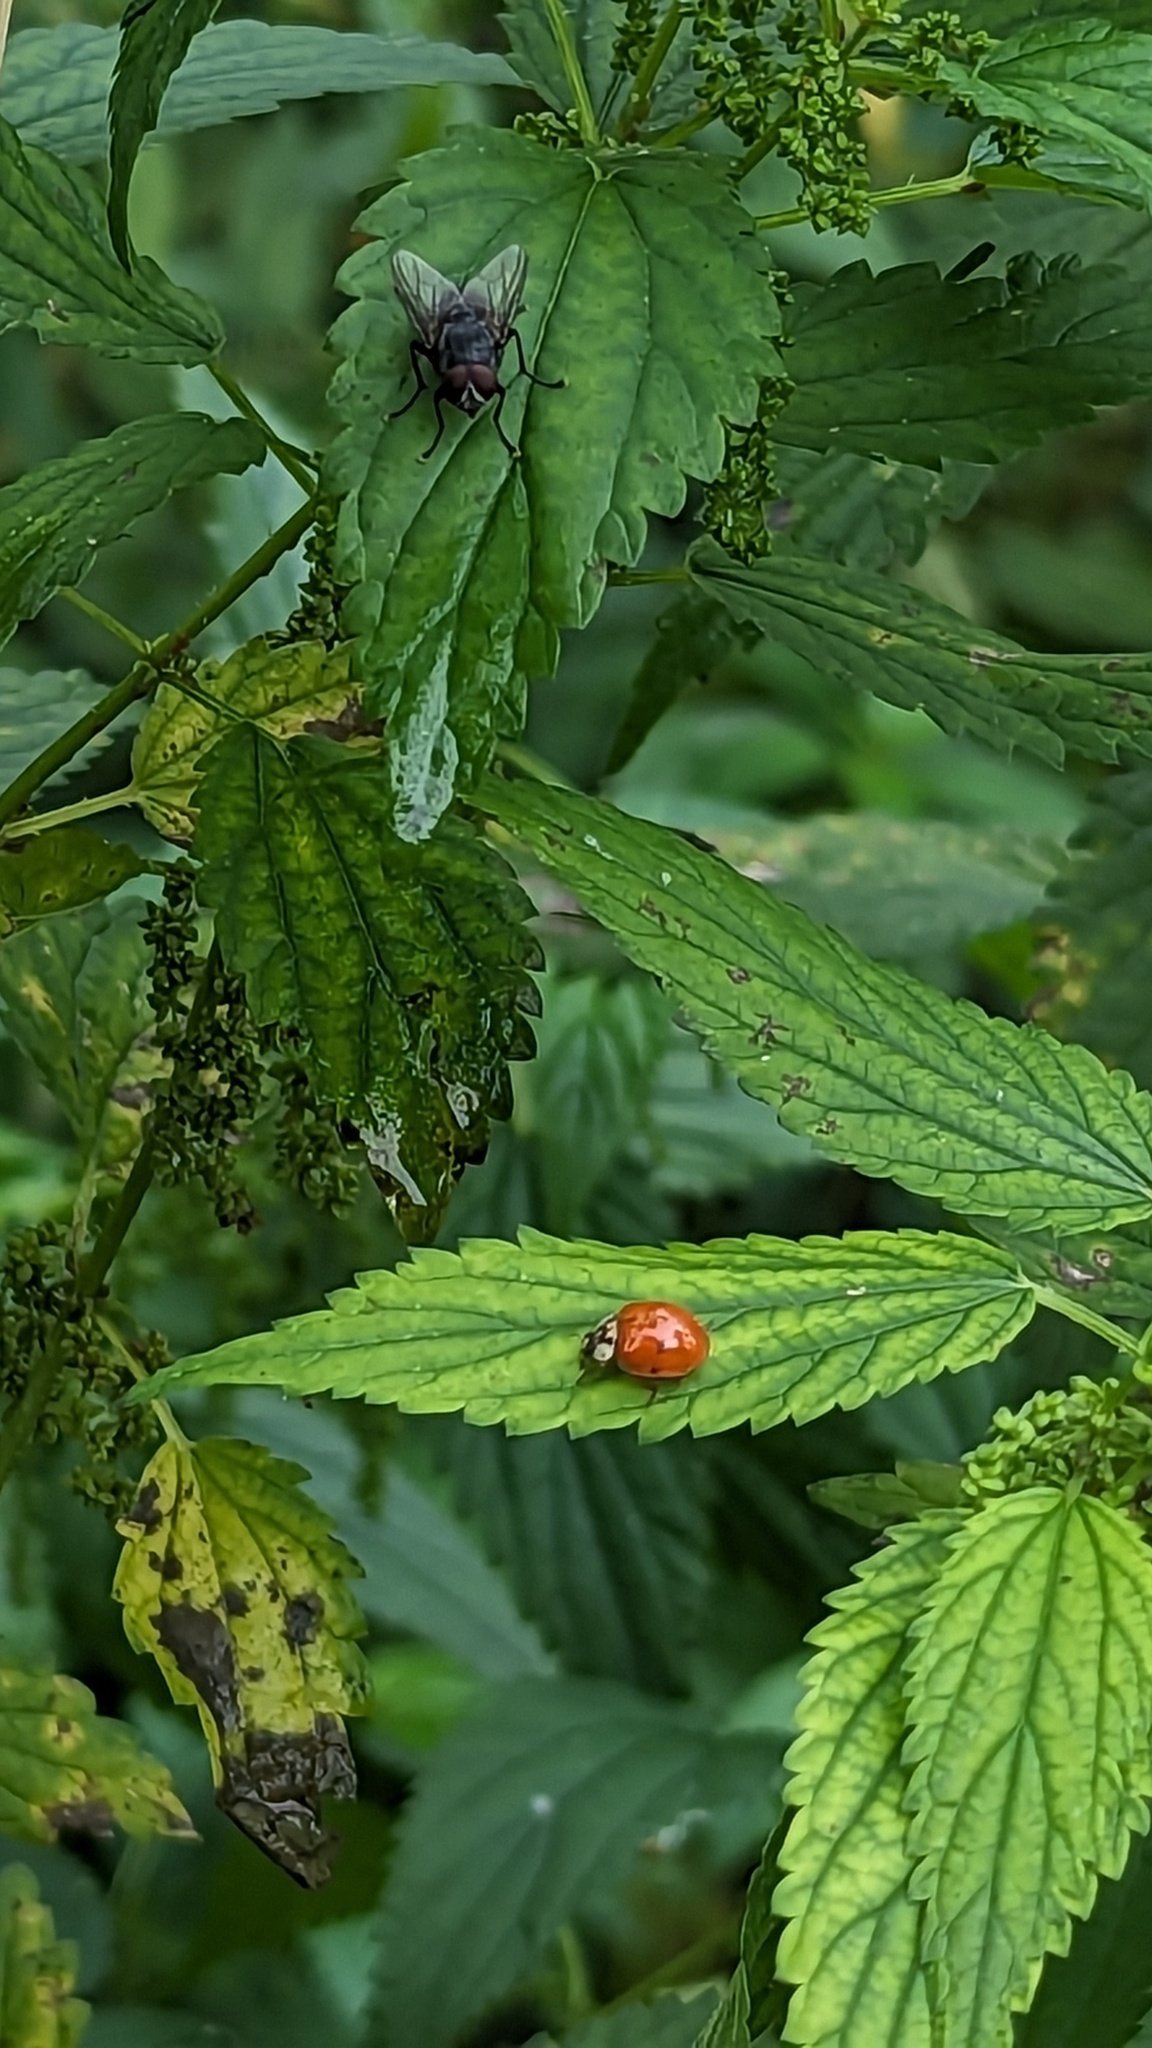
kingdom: Animalia
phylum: Arthropoda
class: Insecta
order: Coleoptera
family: Coccinellidae
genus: Harmonia
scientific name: Harmonia axyridis
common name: Harlequin ladybird
